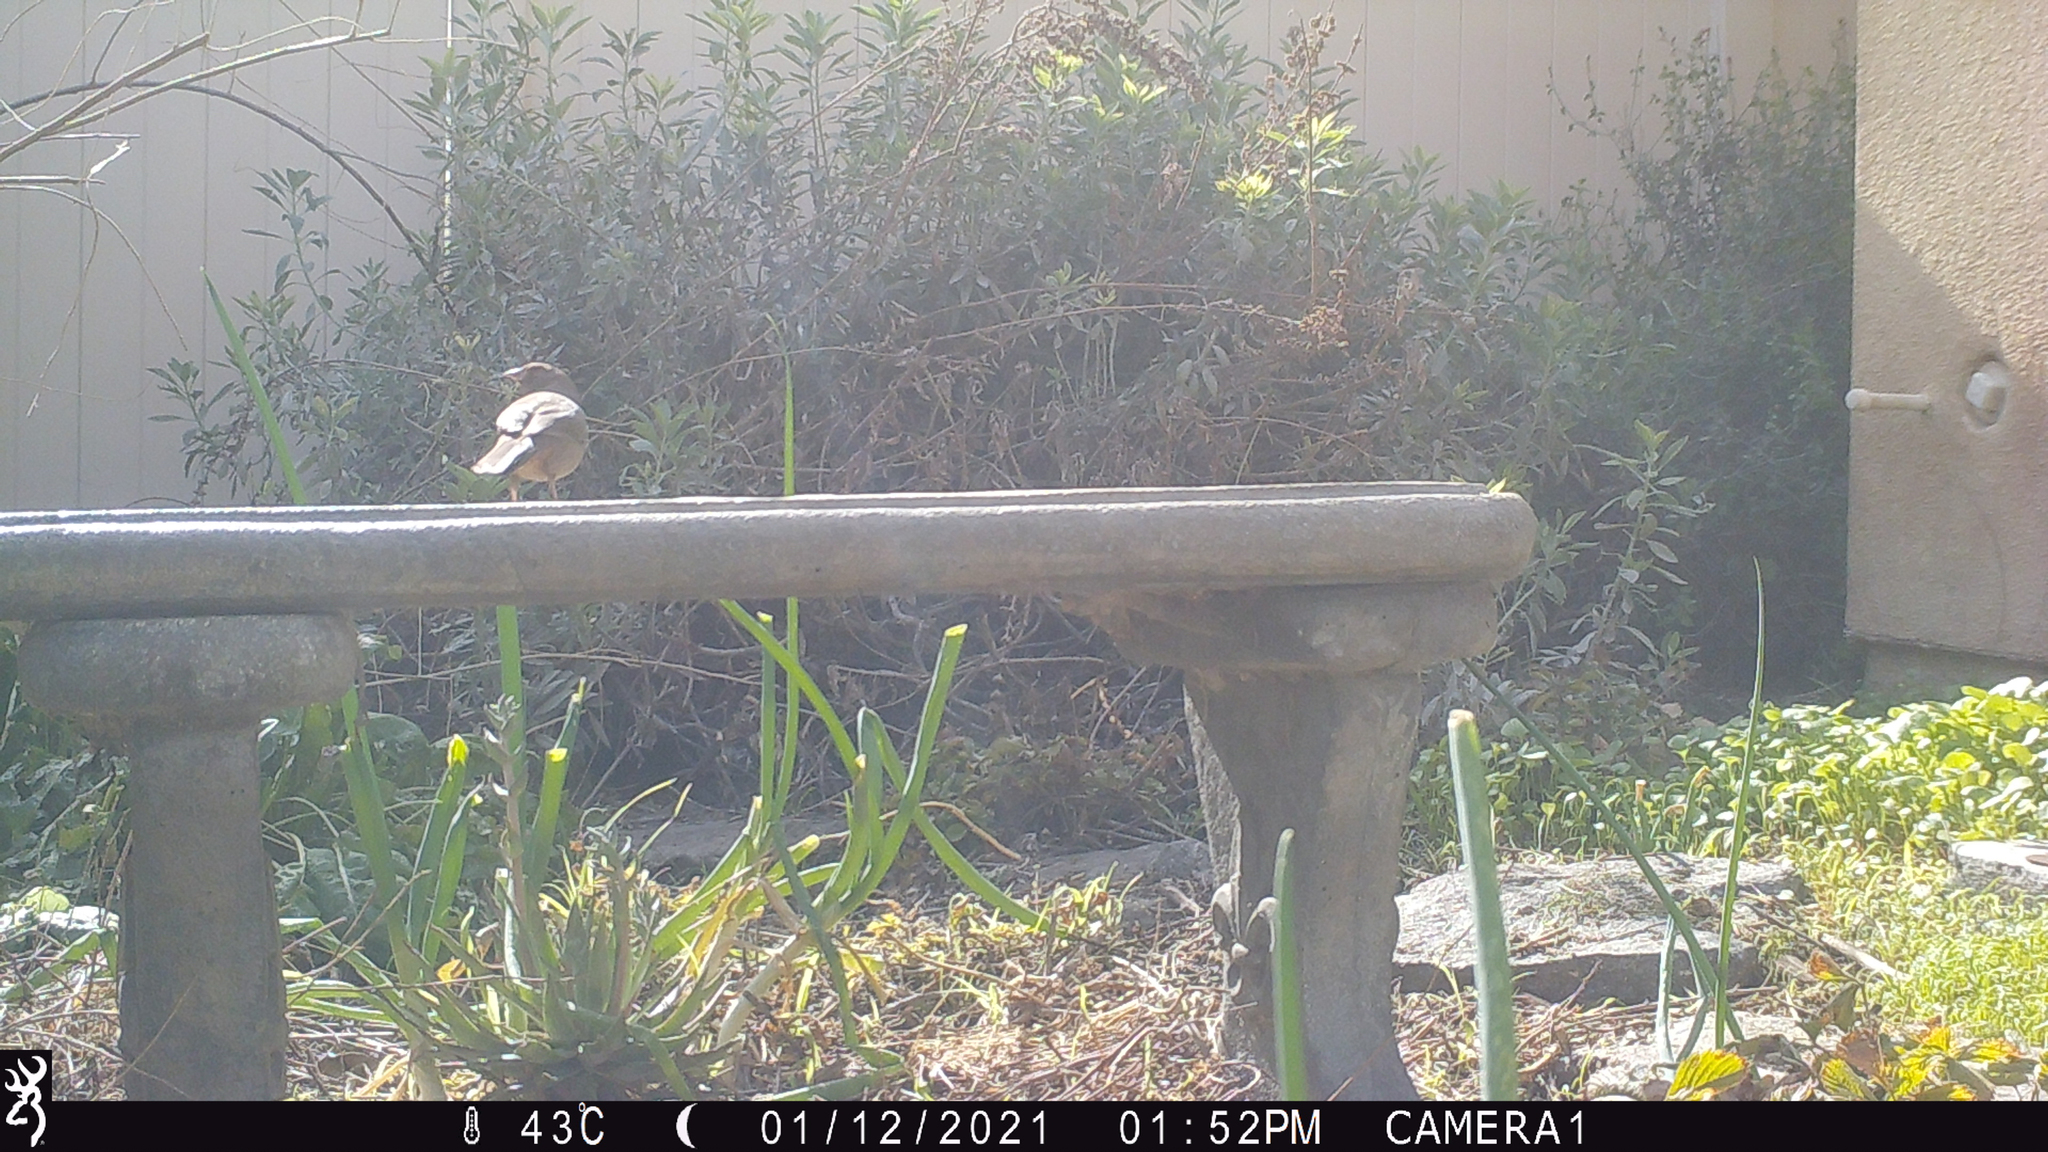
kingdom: Animalia
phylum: Chordata
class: Aves
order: Passeriformes
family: Passerellidae
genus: Melozone
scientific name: Melozone crissalis
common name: California towhee
